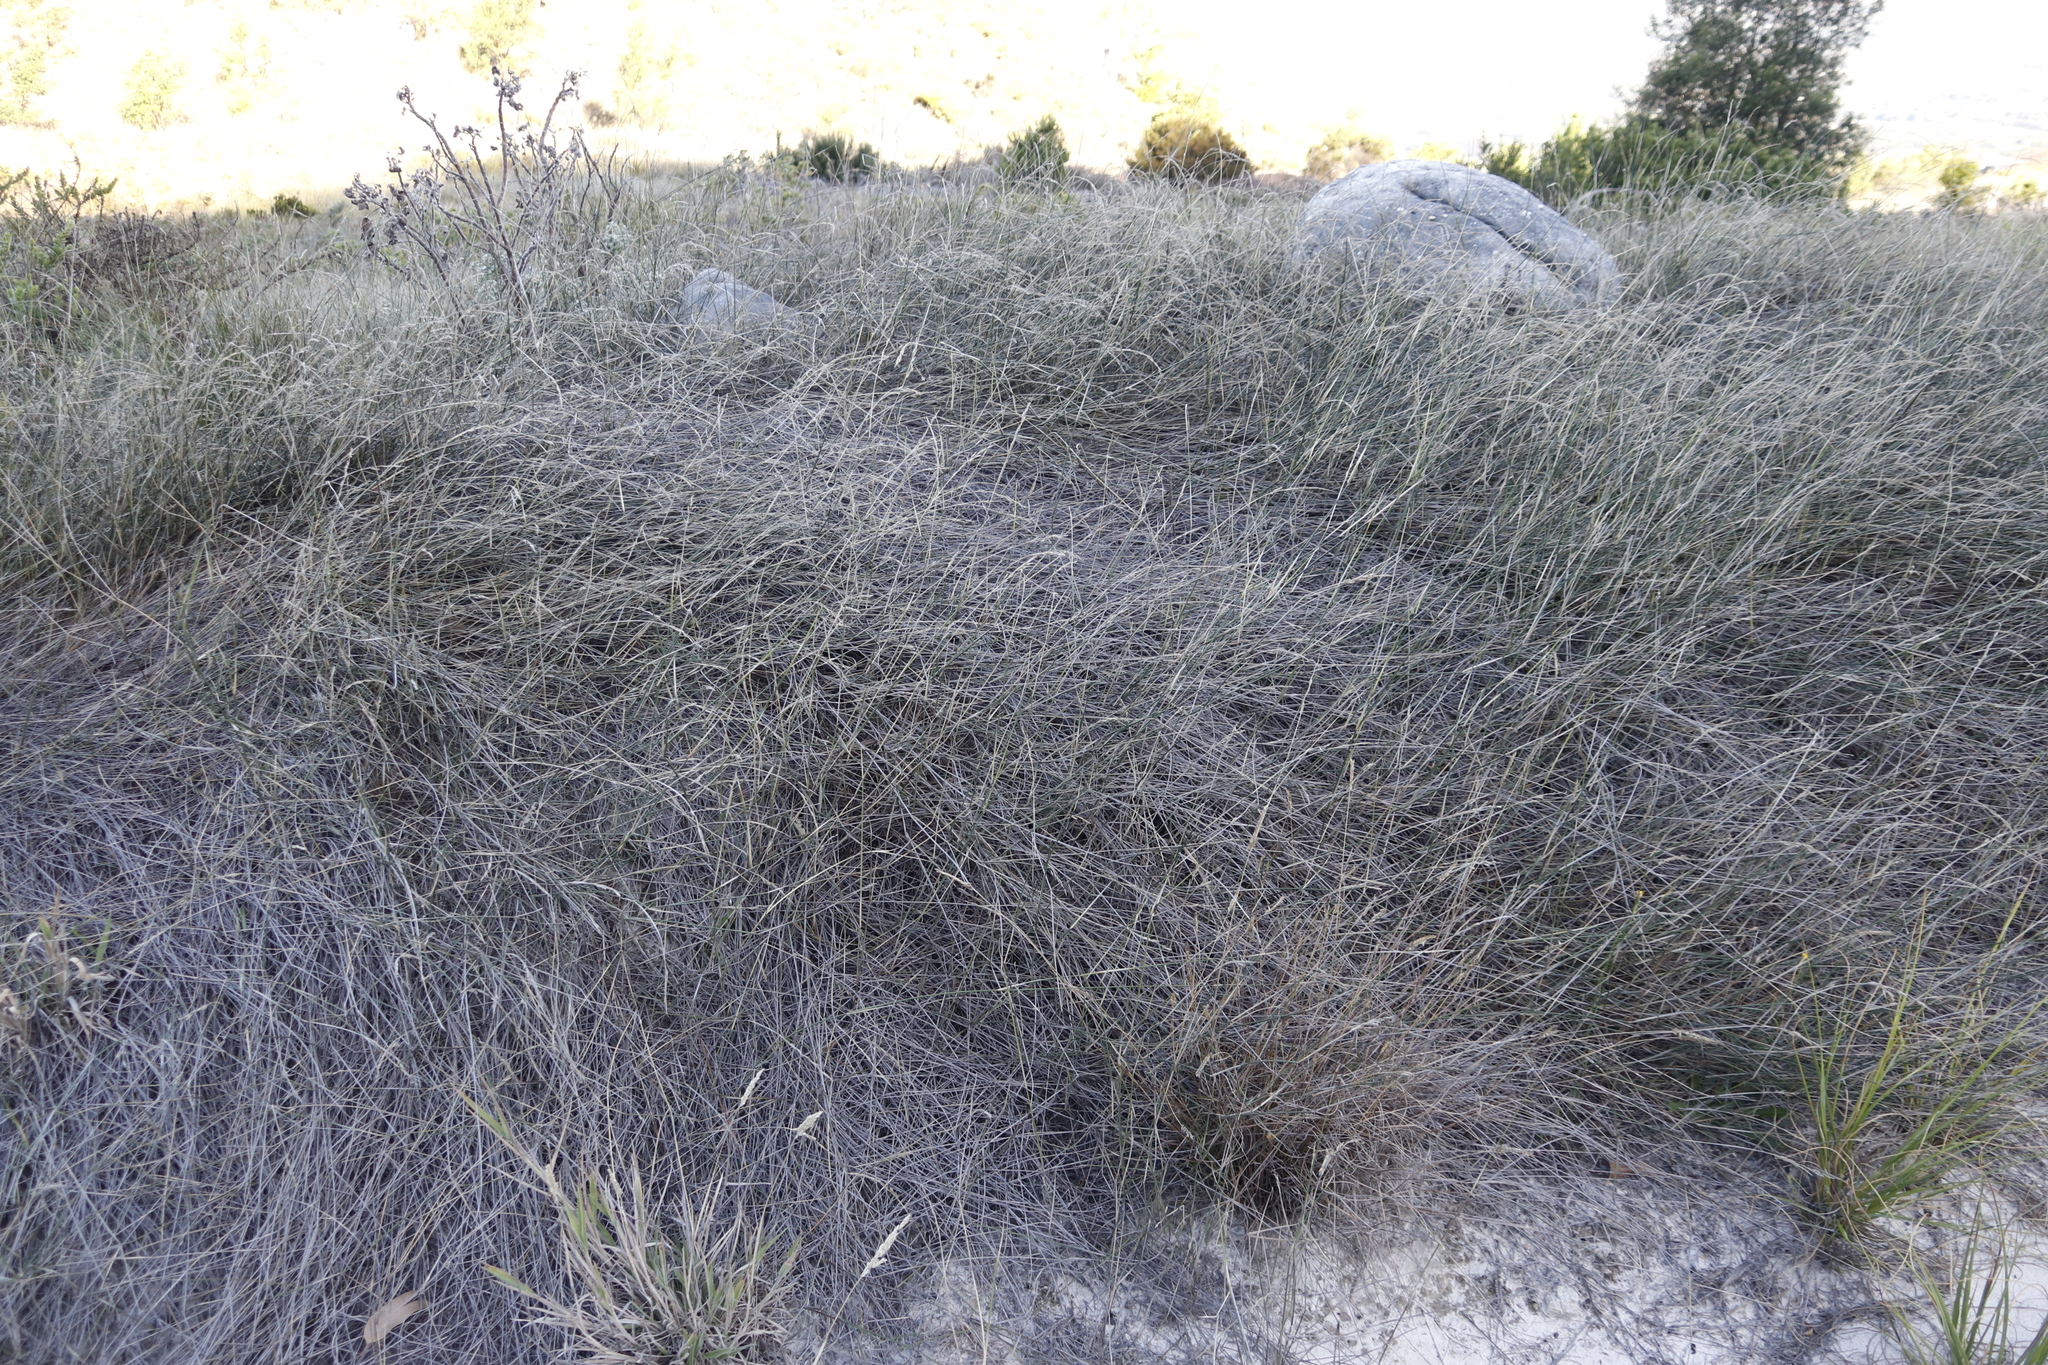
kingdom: Plantae
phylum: Tracheophyta
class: Liliopsida
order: Poales
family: Poaceae
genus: Ehrharta
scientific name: Ehrharta villosa
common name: Pyp grass
